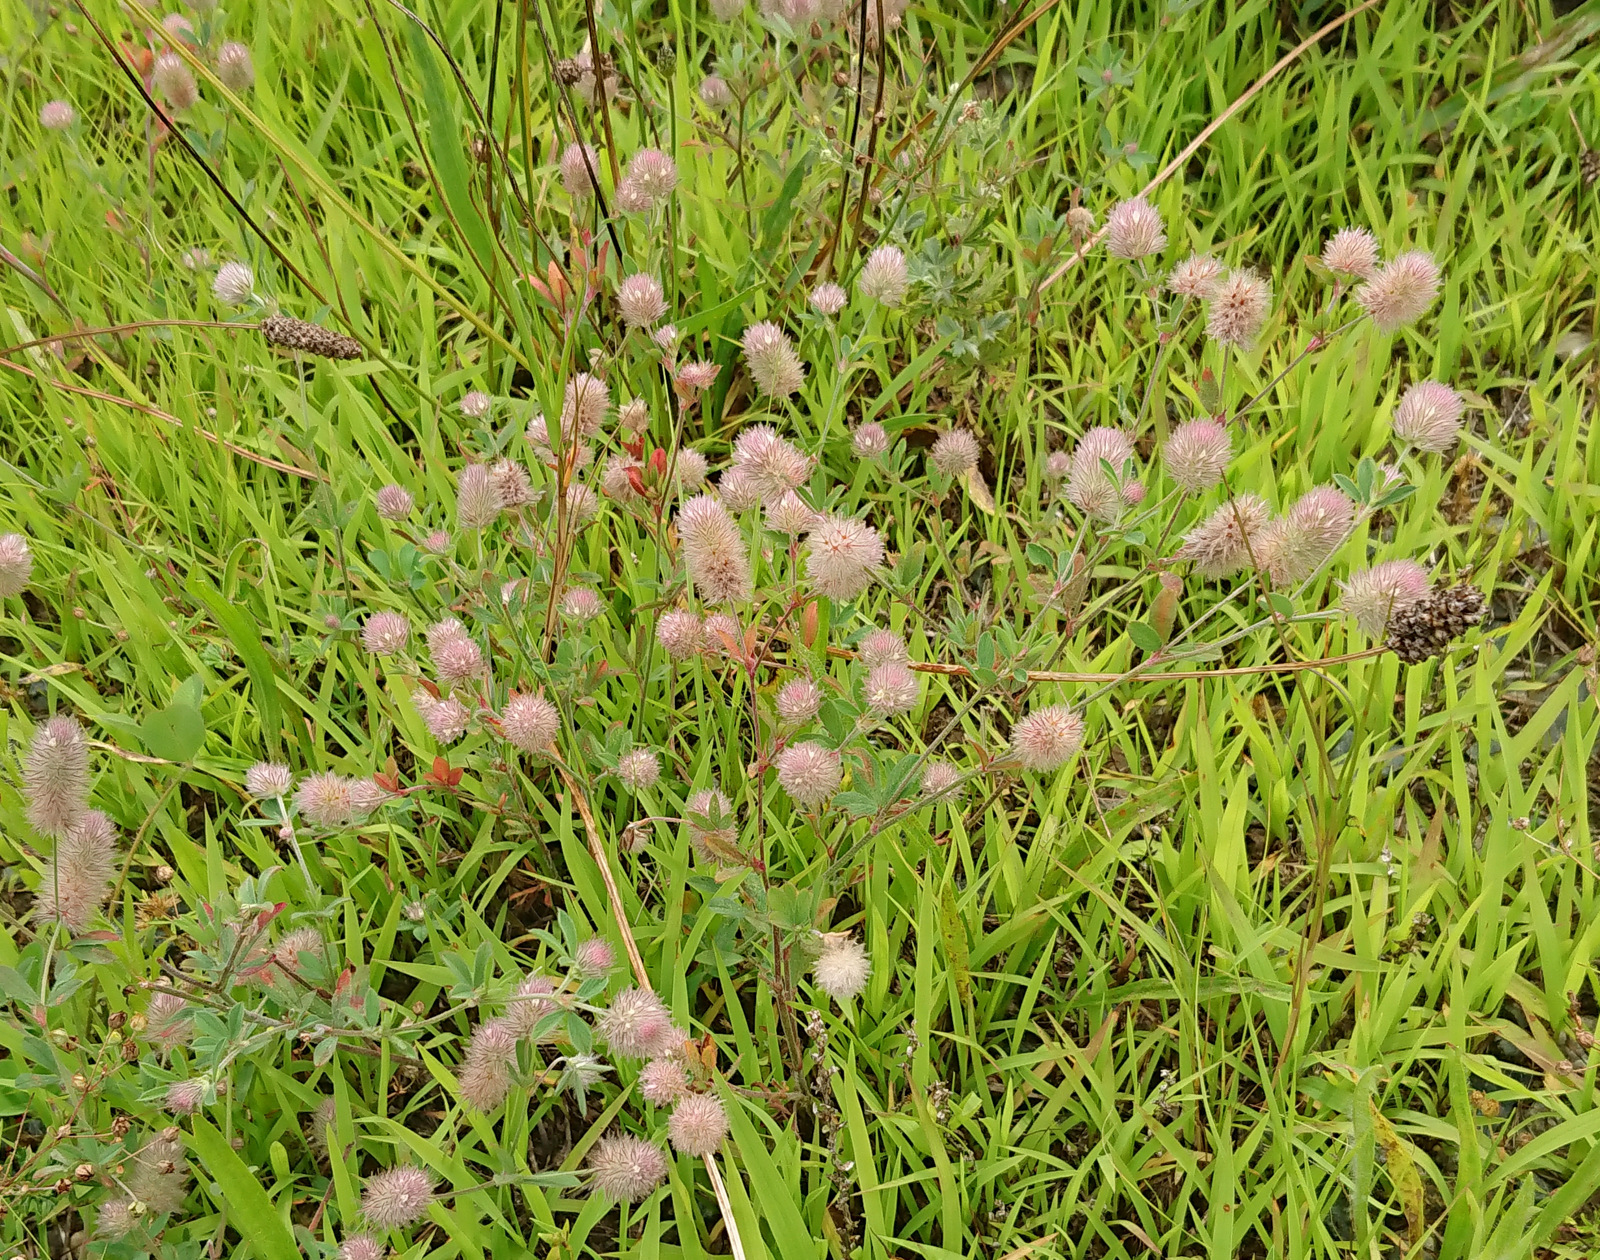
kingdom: Plantae
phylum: Tracheophyta
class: Magnoliopsida
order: Fabales
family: Fabaceae
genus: Trifolium
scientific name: Trifolium arvense
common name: Hare's-foot clover
